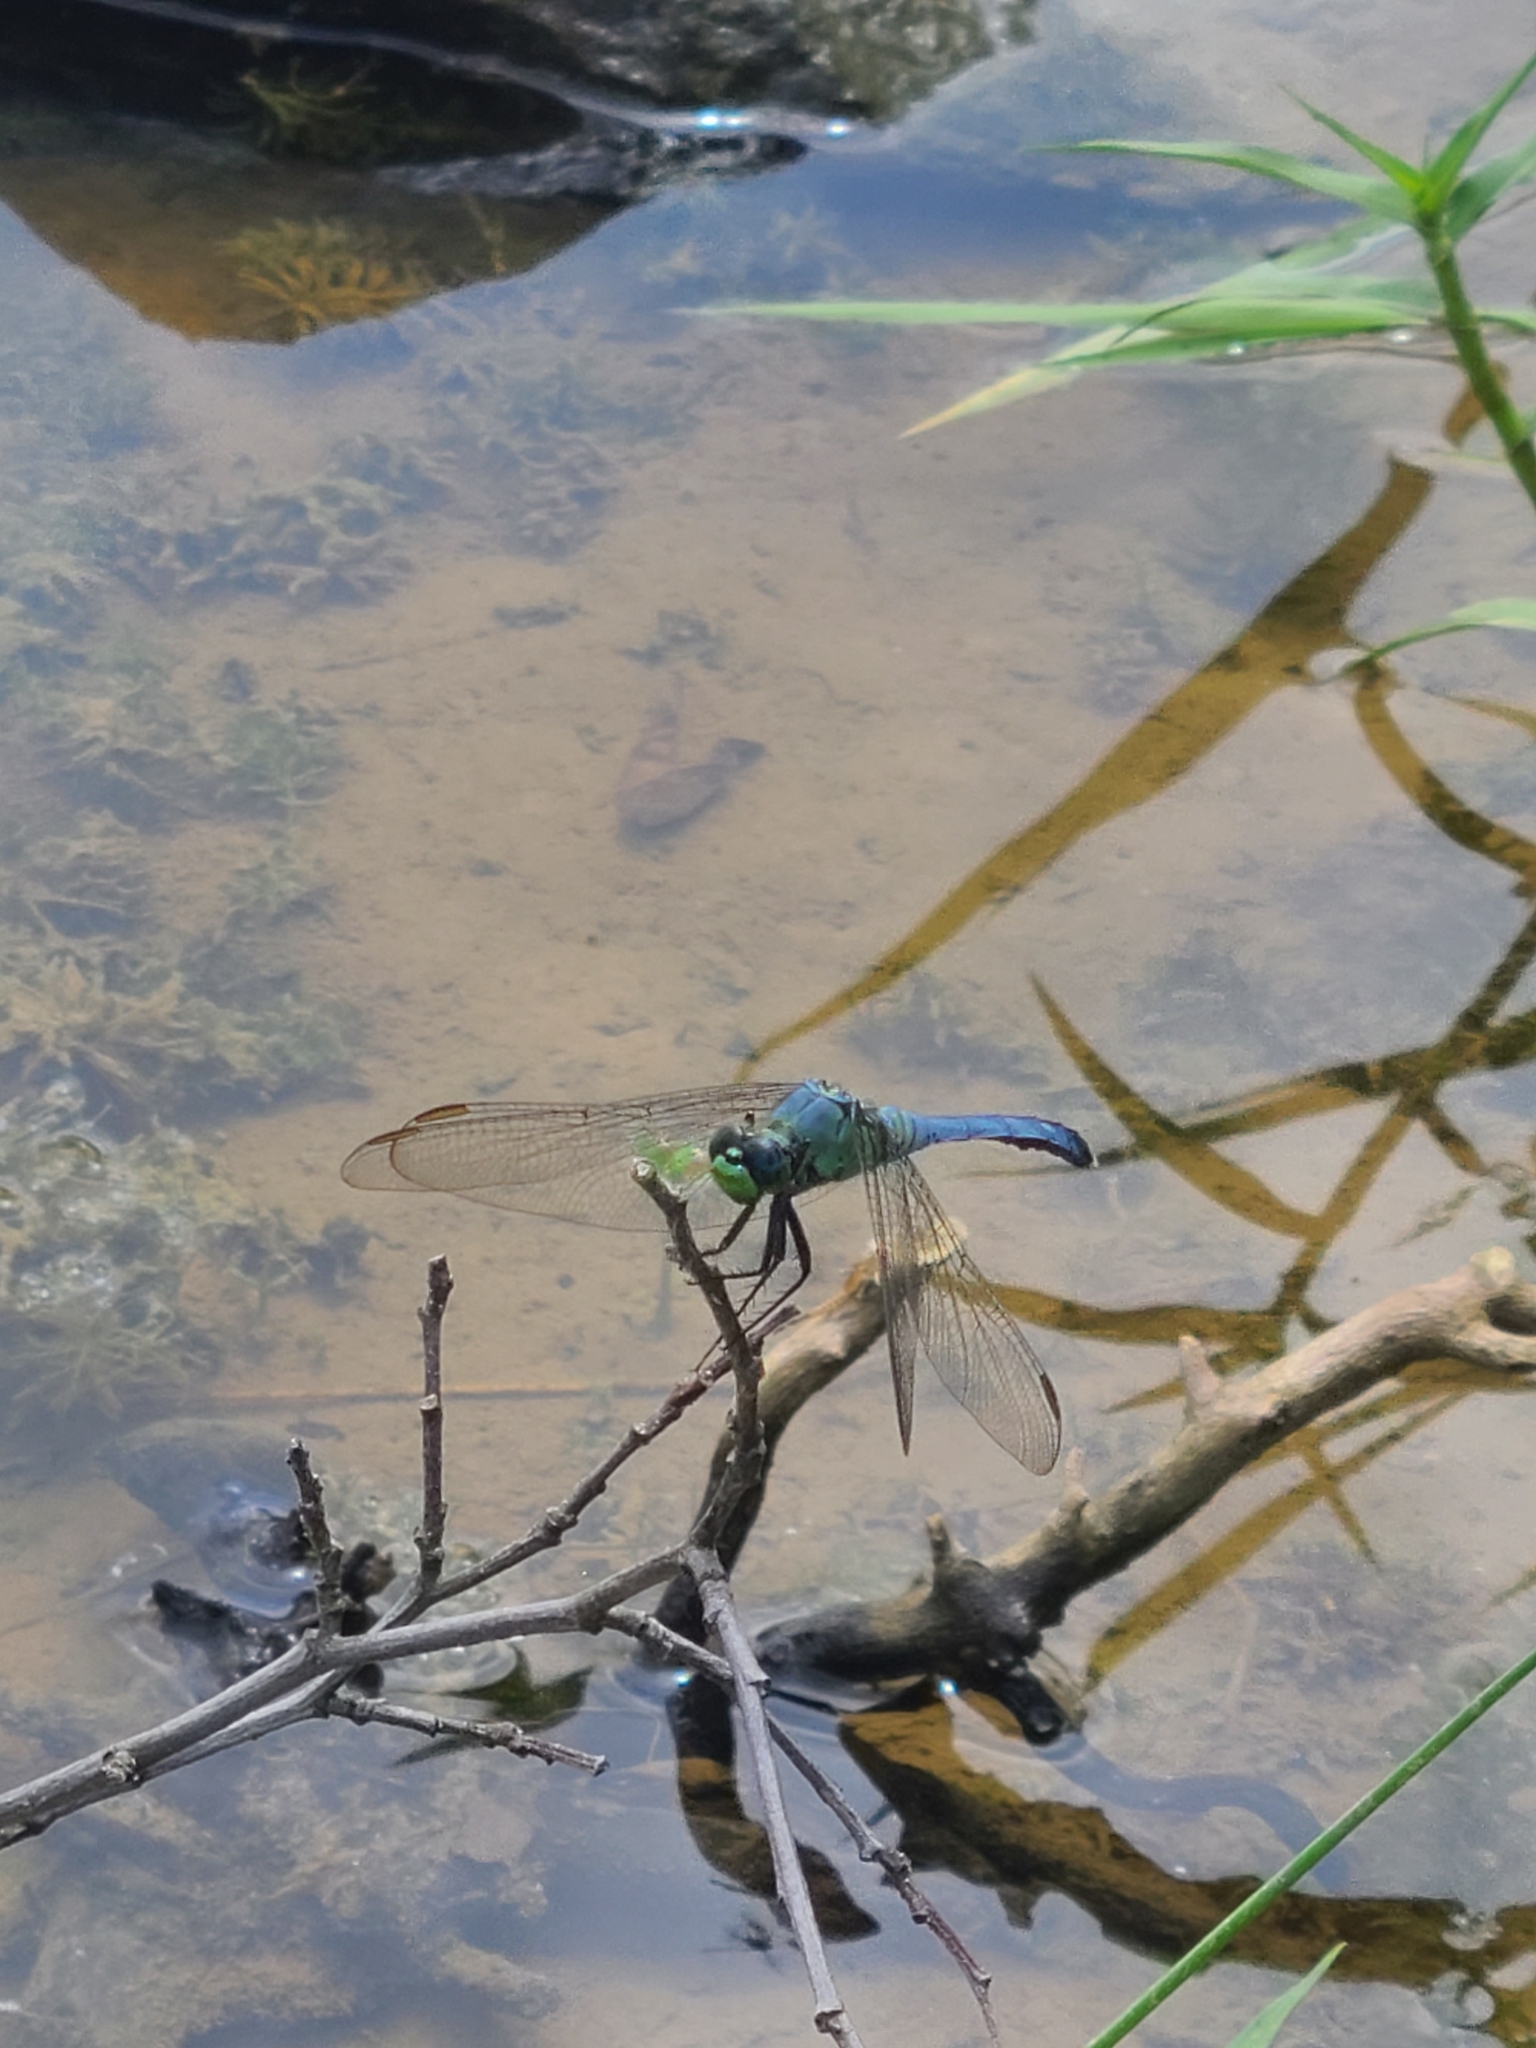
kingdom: Animalia
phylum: Arthropoda
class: Insecta
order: Odonata
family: Libellulidae
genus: Erythemis
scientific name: Erythemis simplicicollis
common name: Eastern pondhawk
